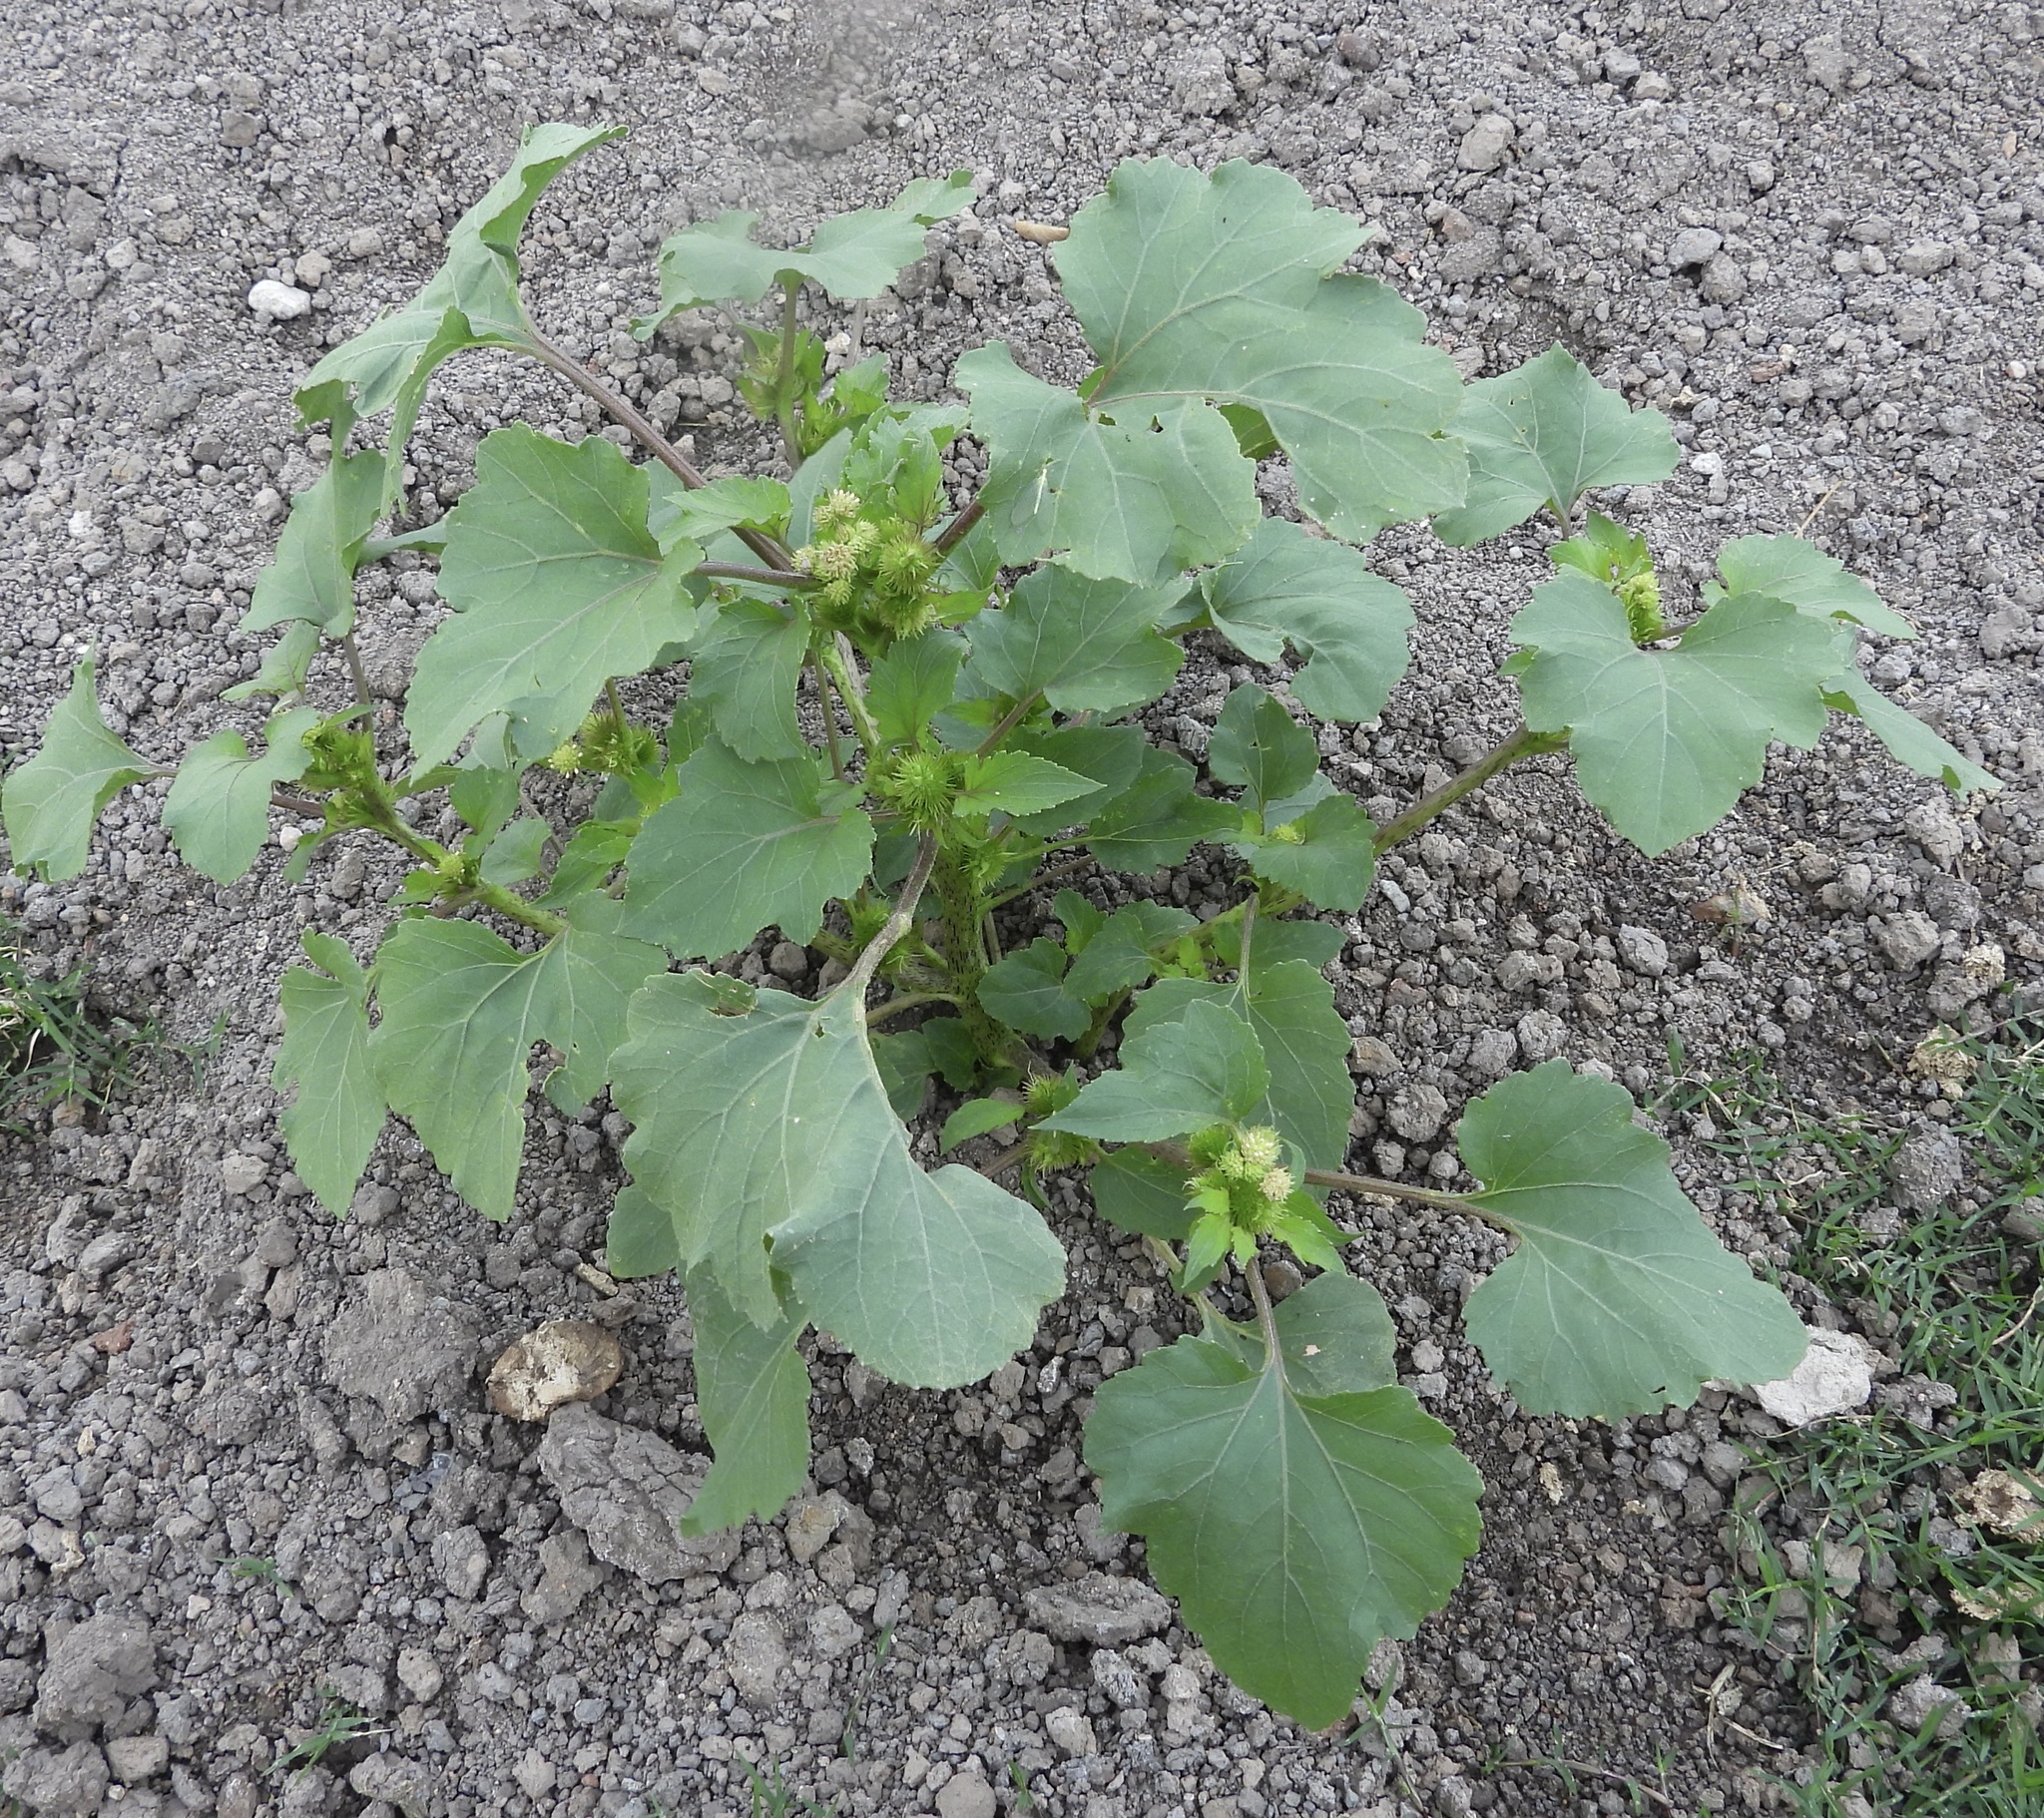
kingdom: Plantae
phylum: Tracheophyta
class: Magnoliopsida
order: Asterales
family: Asteraceae
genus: Xanthium
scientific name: Xanthium strumarium
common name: Rough cocklebur
